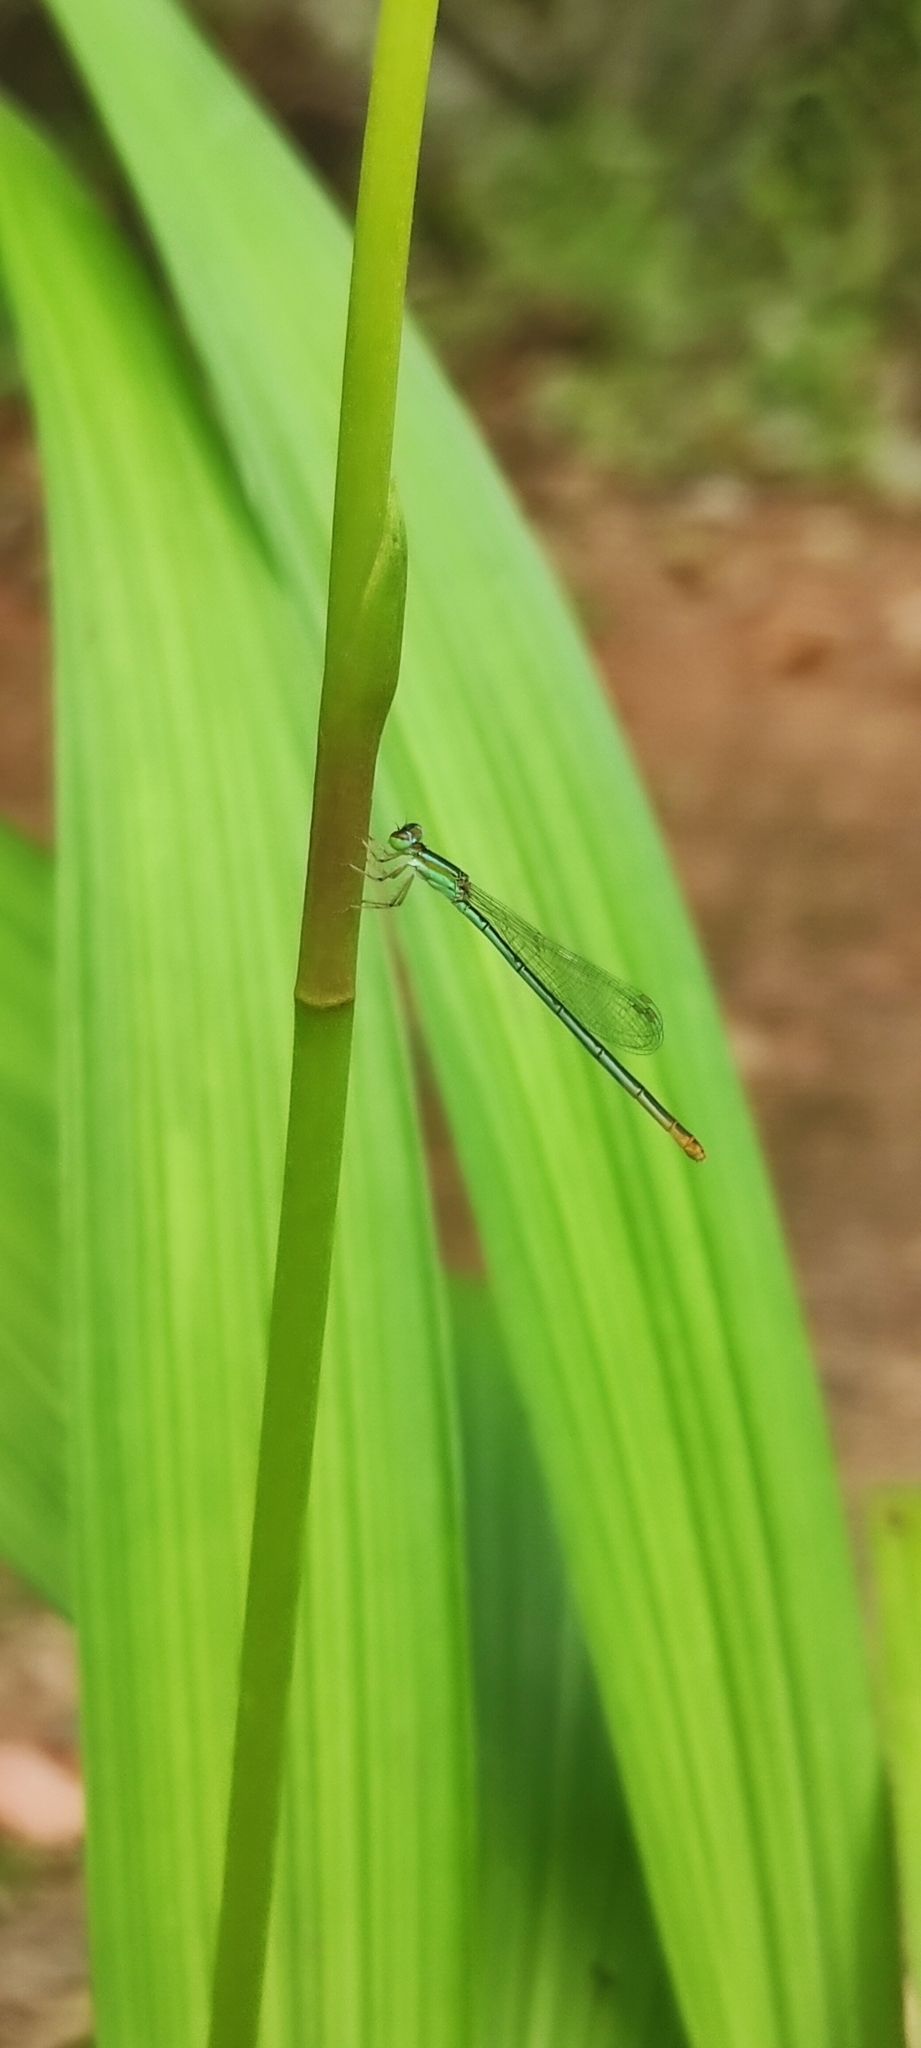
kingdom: Animalia
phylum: Arthropoda
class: Insecta
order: Odonata
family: Coenagrionidae
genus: Agriocnemis
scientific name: Agriocnemis pygmaea
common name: Pygmy wisp
